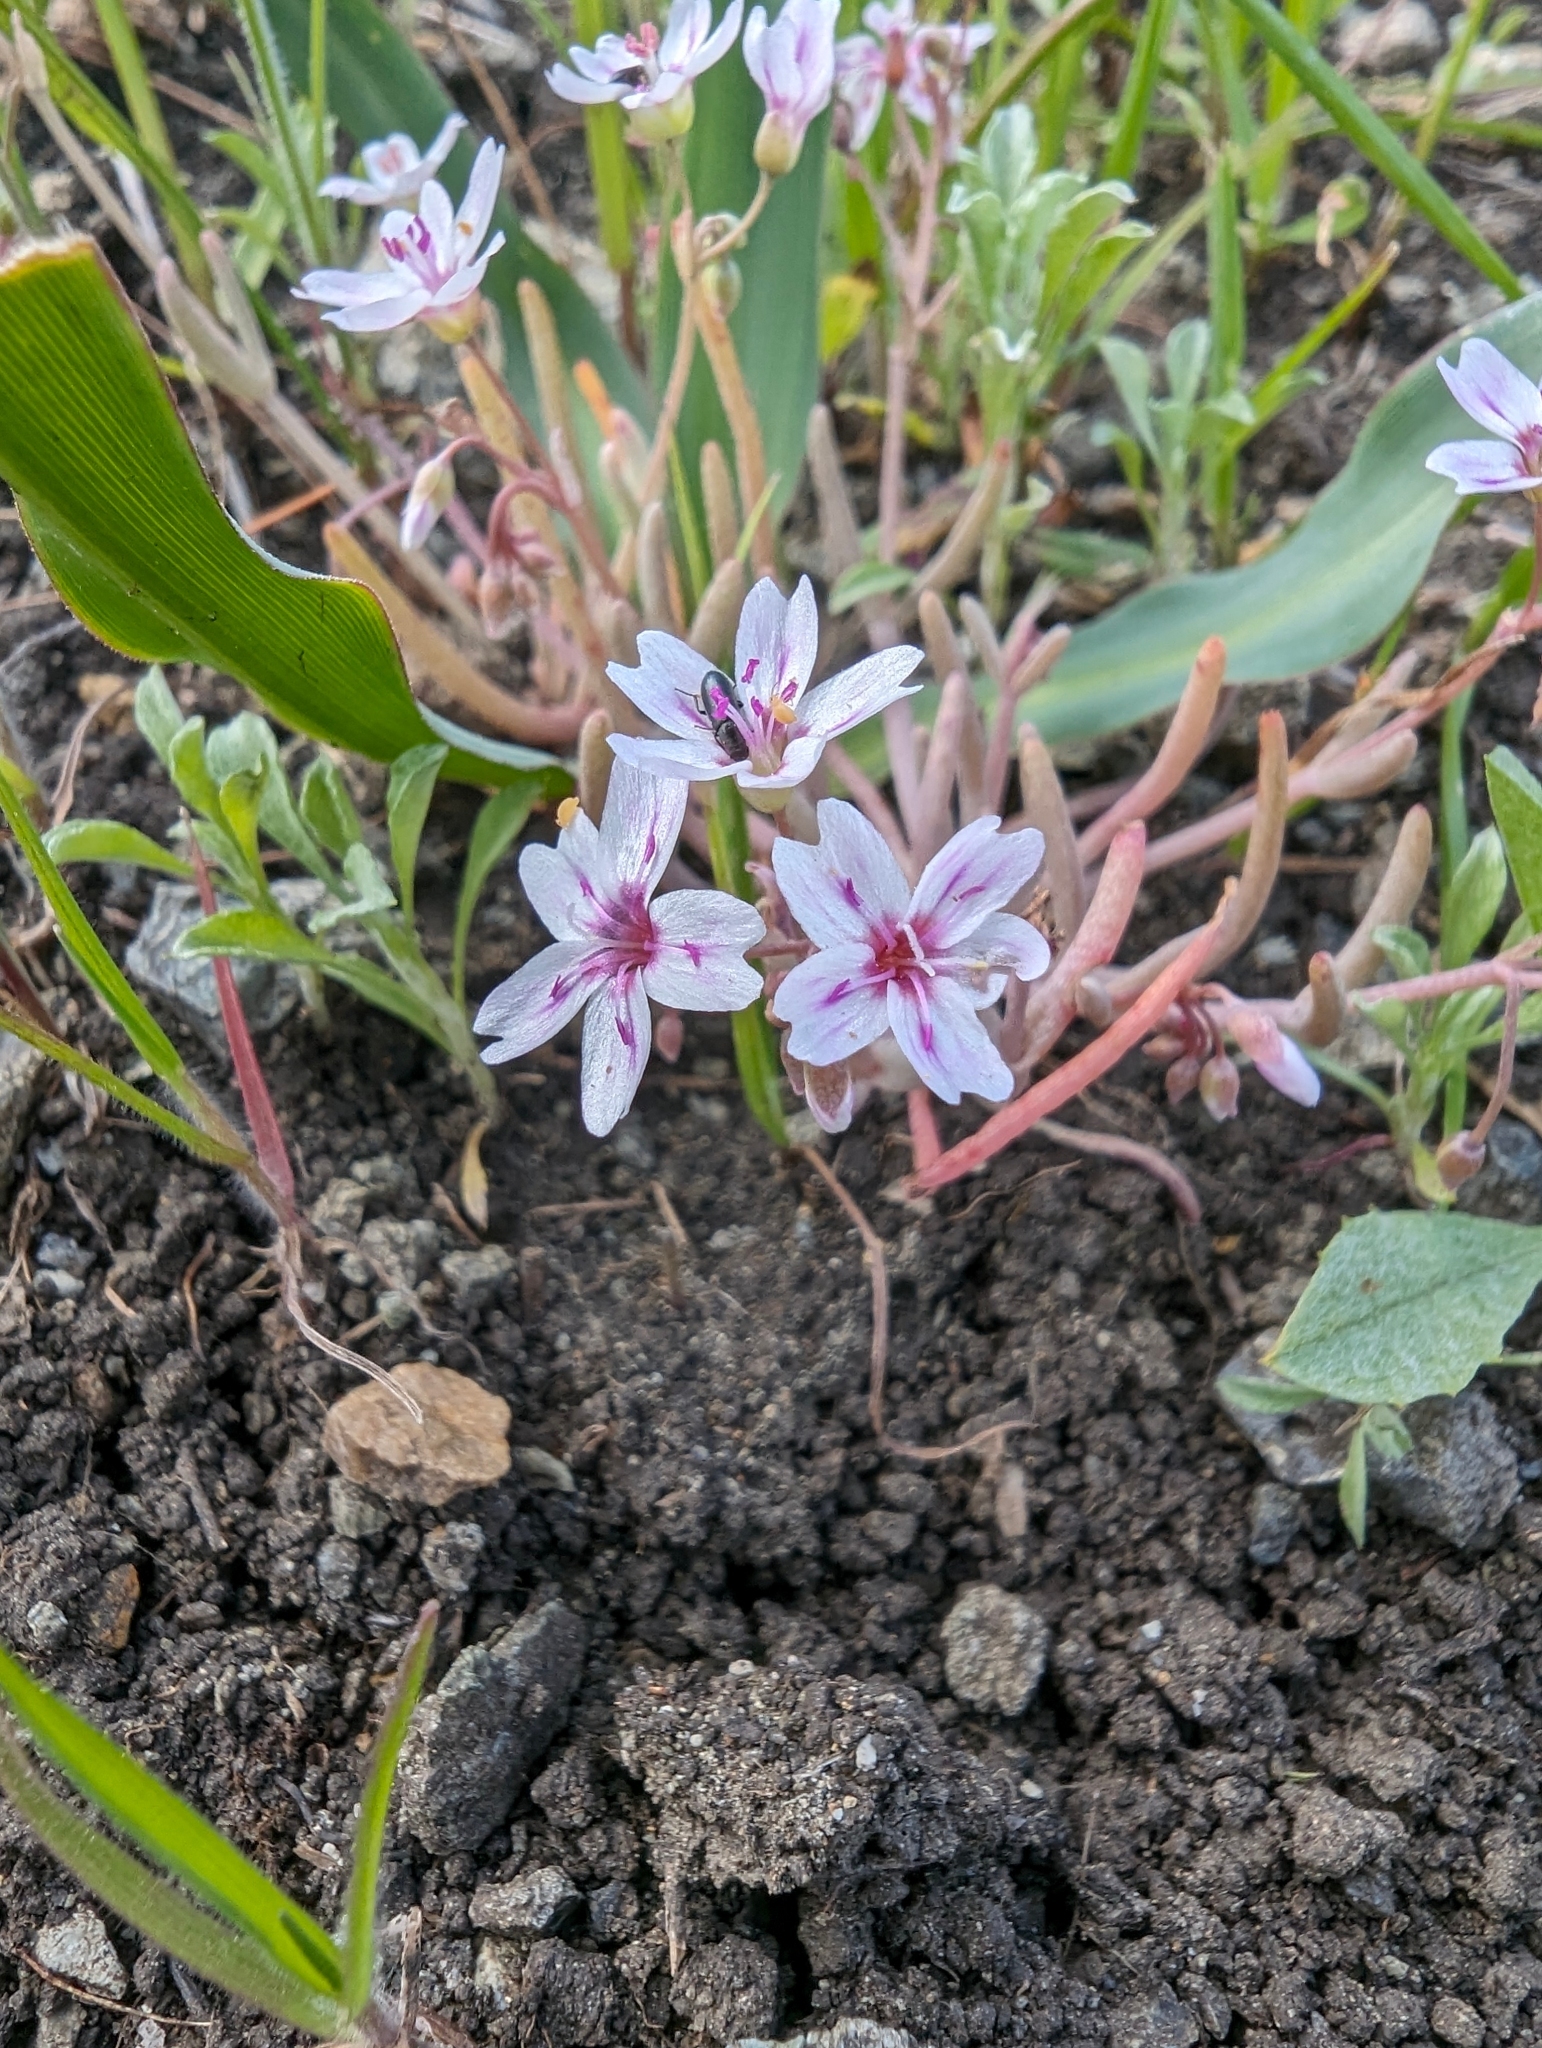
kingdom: Plantae
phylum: Tracheophyta
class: Magnoliopsida
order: Caryophyllales
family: Montiaceae
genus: Claytonia
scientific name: Claytonia gypsophiloides
